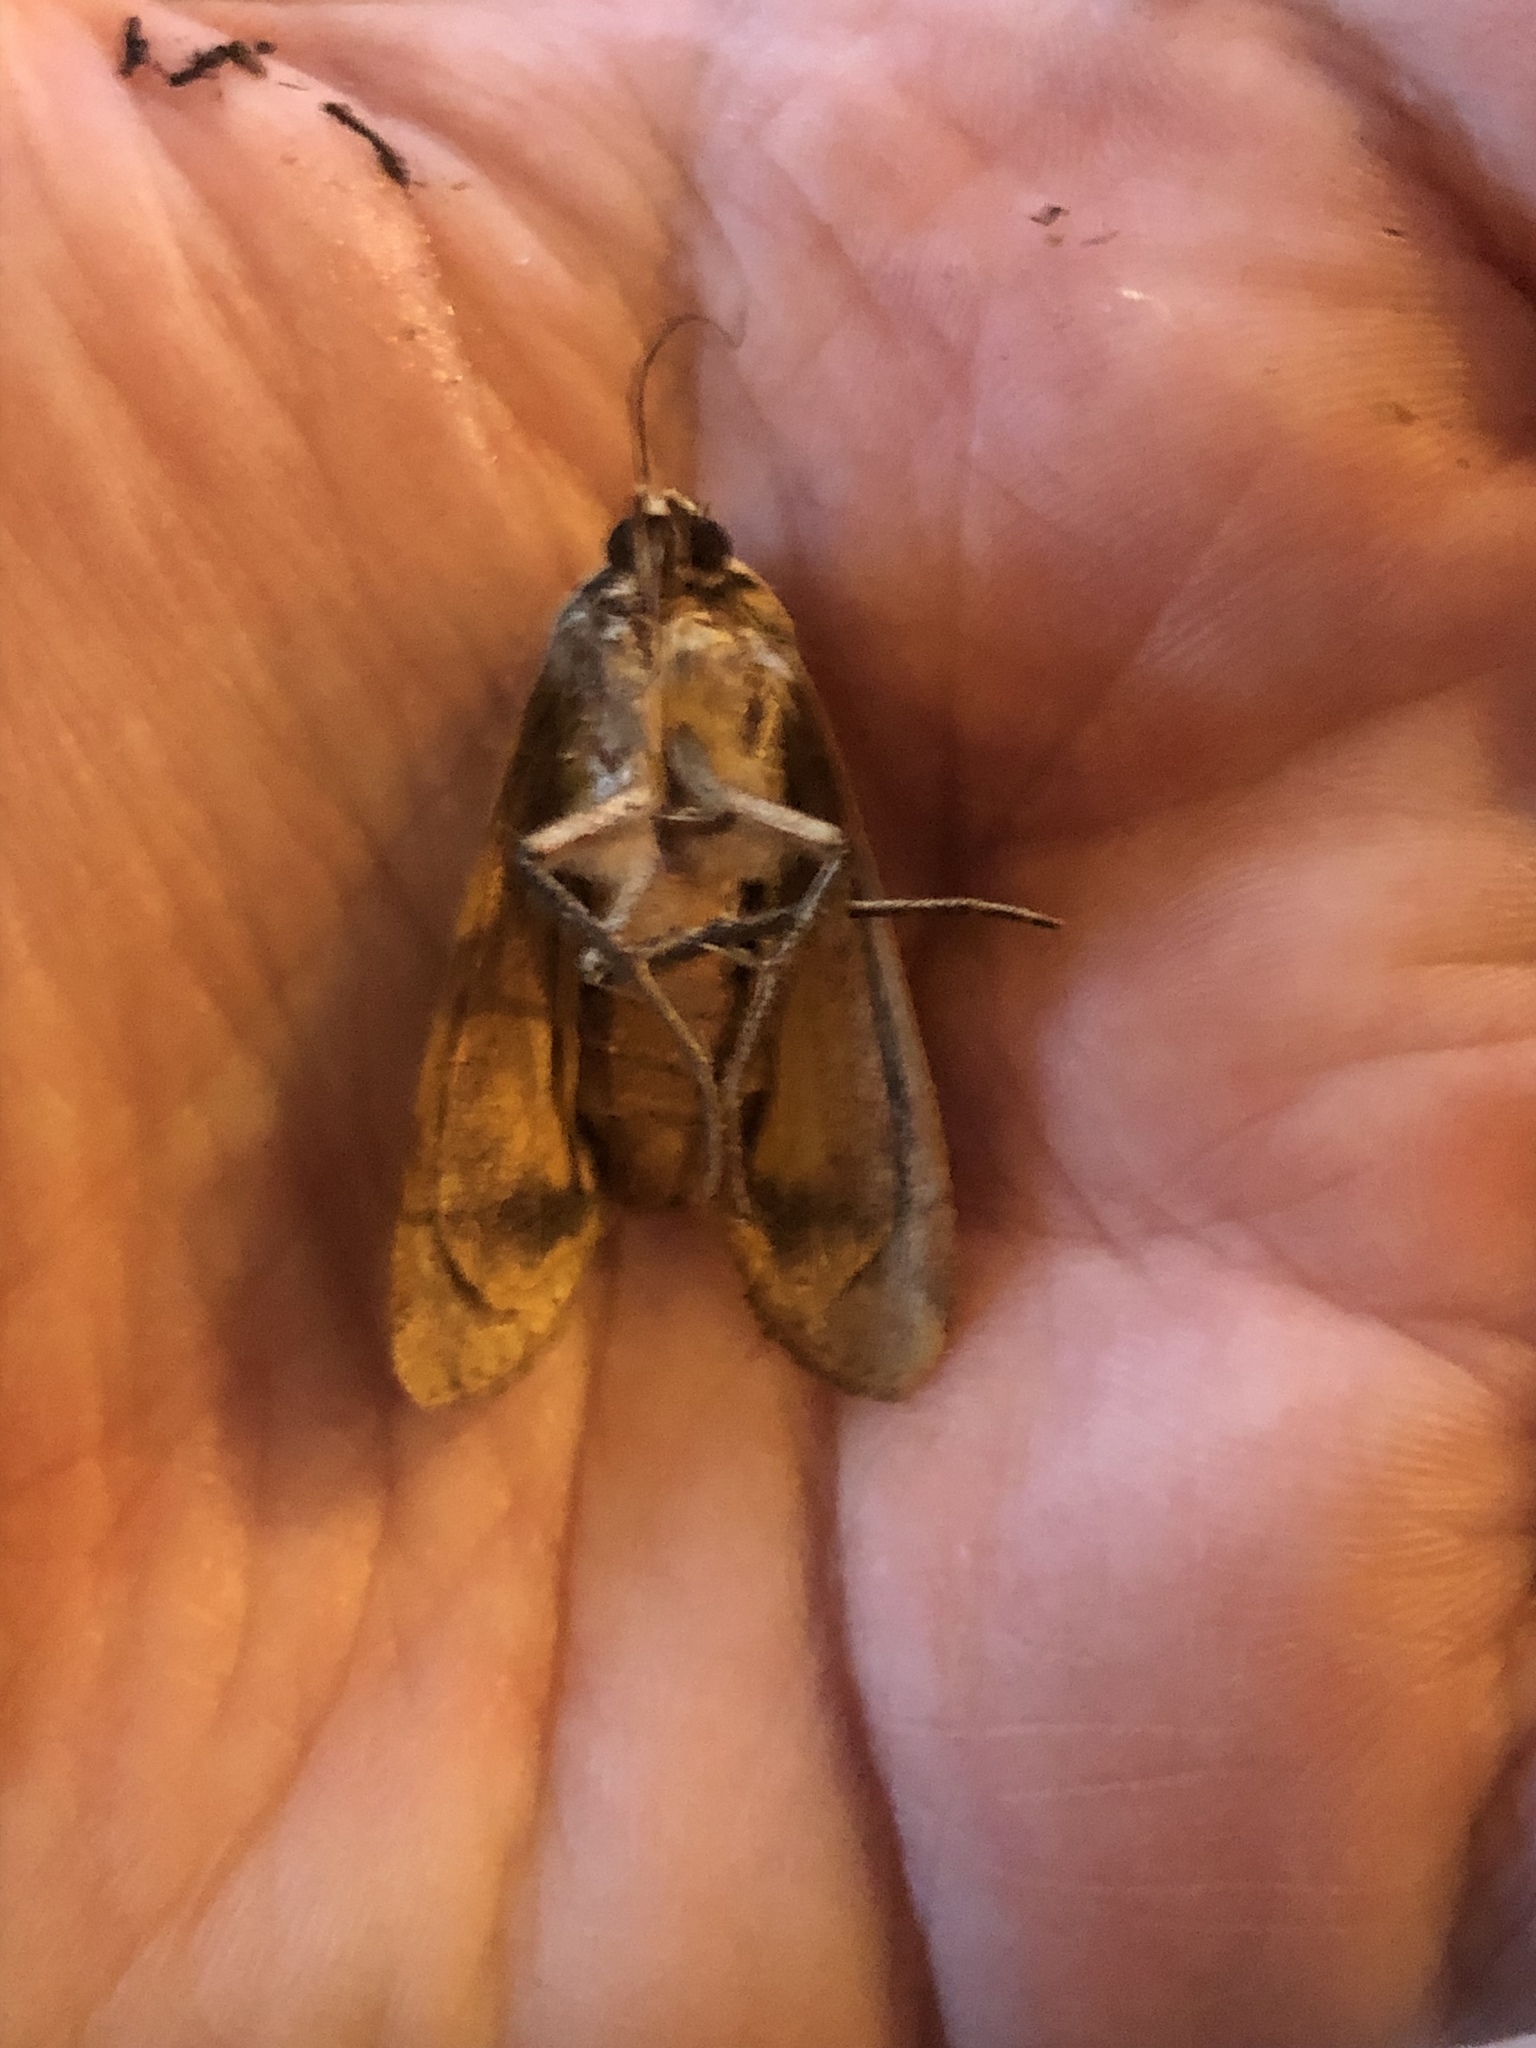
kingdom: Animalia
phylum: Arthropoda
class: Insecta
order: Lepidoptera
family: Noctuidae
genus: Noctua
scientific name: Noctua pronuba
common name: Large yellow underwing
